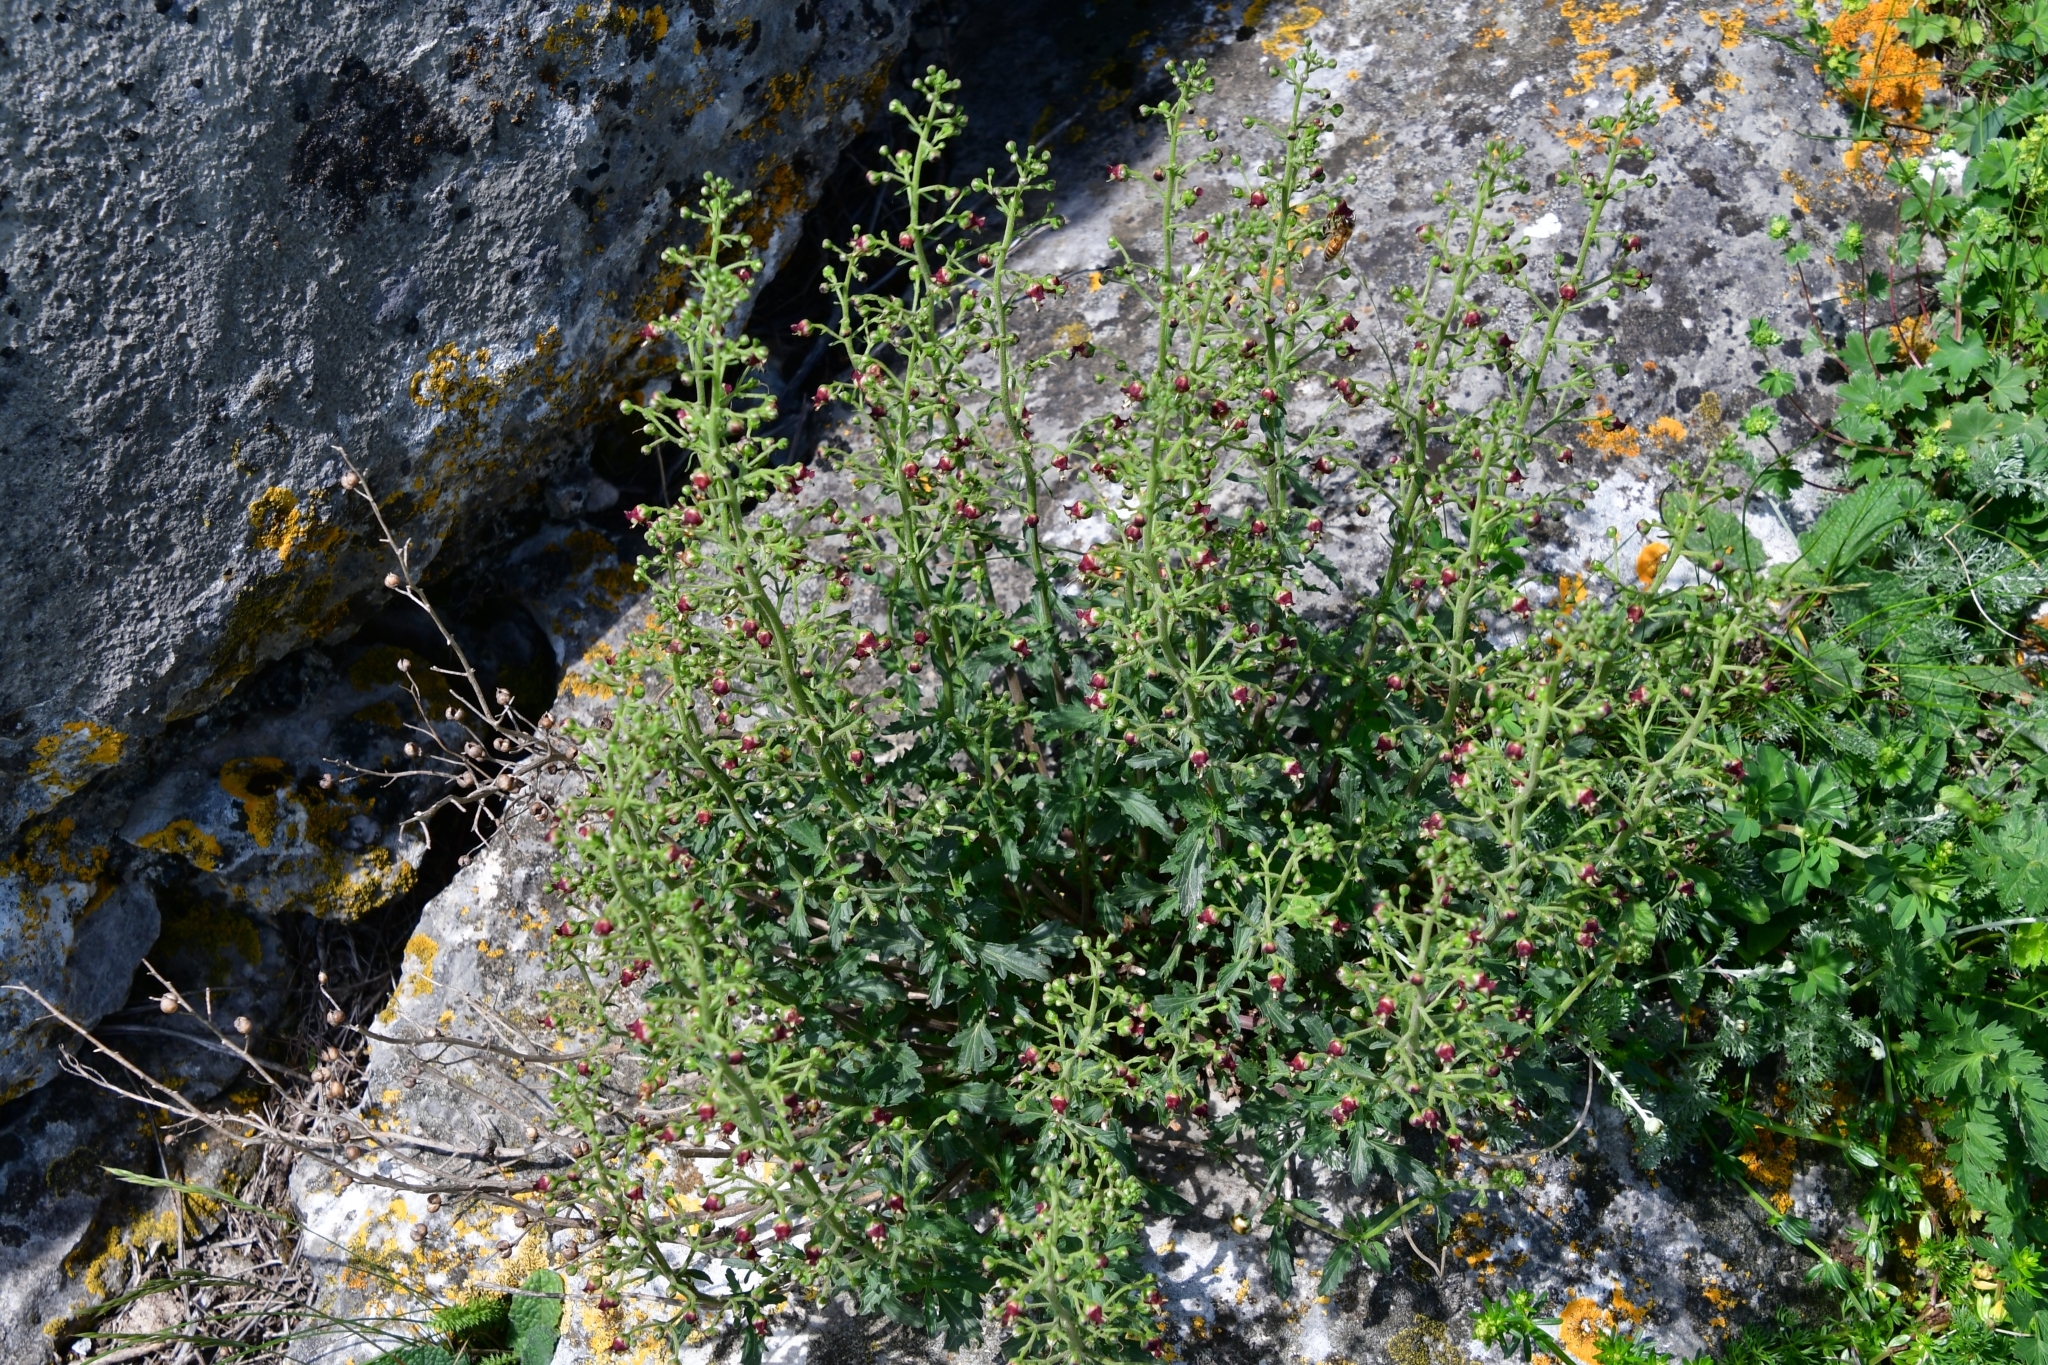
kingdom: Plantae
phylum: Tracheophyta
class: Magnoliopsida
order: Lamiales
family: Scrophulariaceae
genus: Scrophularia
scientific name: Scrophularia rupestris
